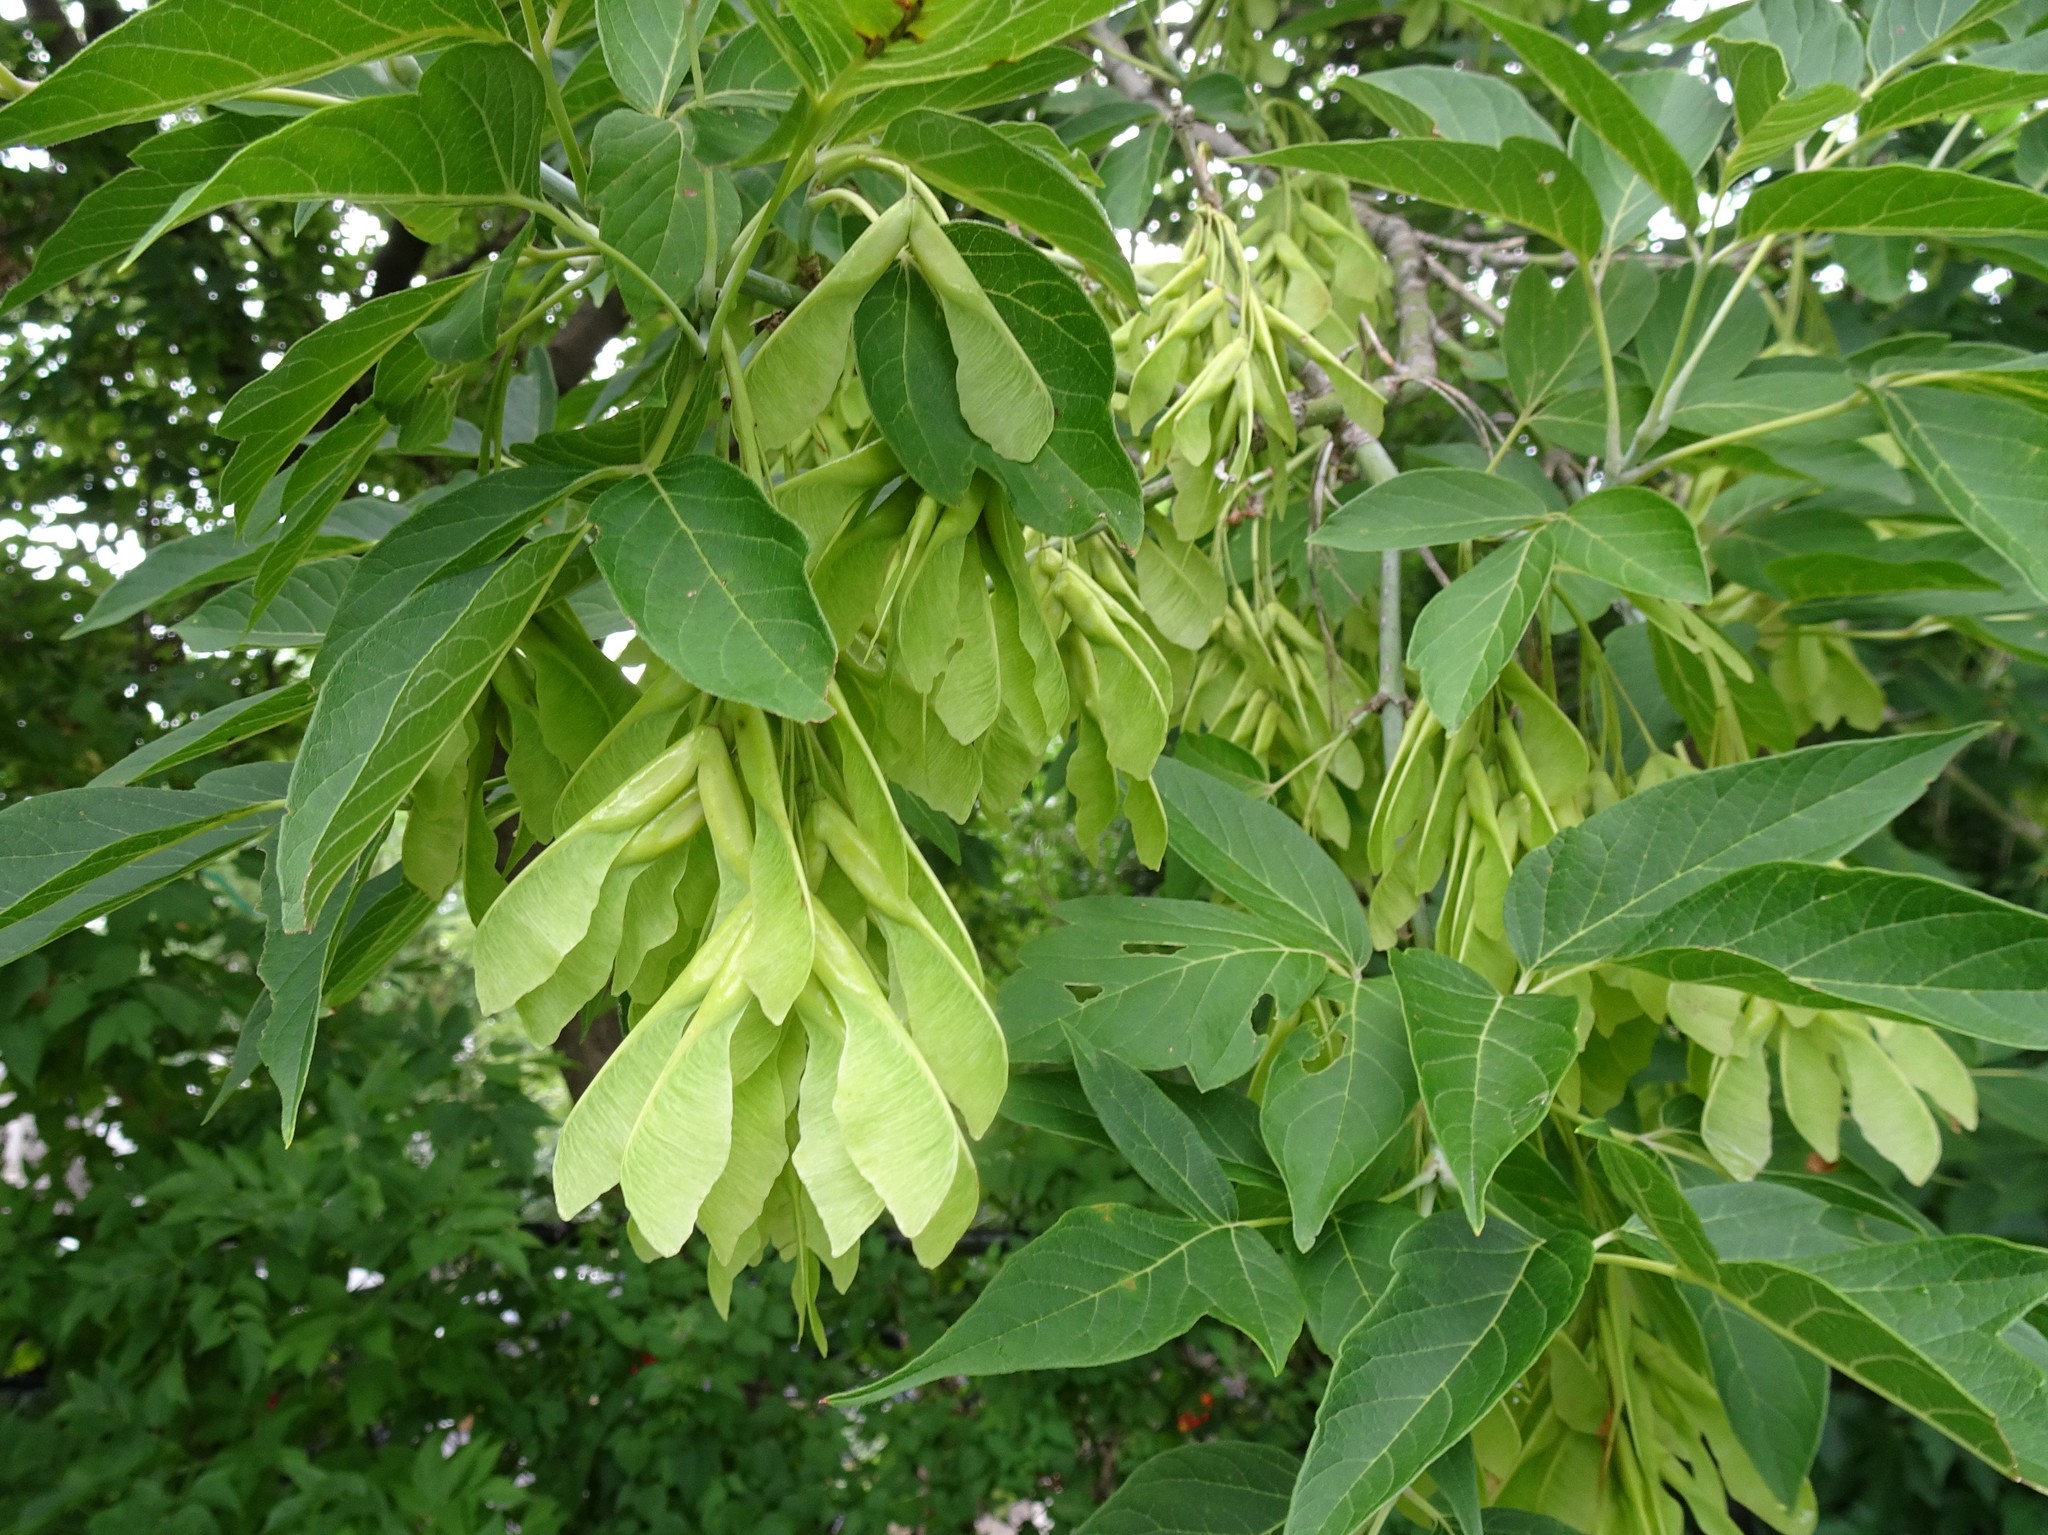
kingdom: Plantae
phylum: Tracheophyta
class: Magnoliopsida
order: Sapindales
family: Sapindaceae
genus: Acer
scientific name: Acer negundo
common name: Ashleaf maple
